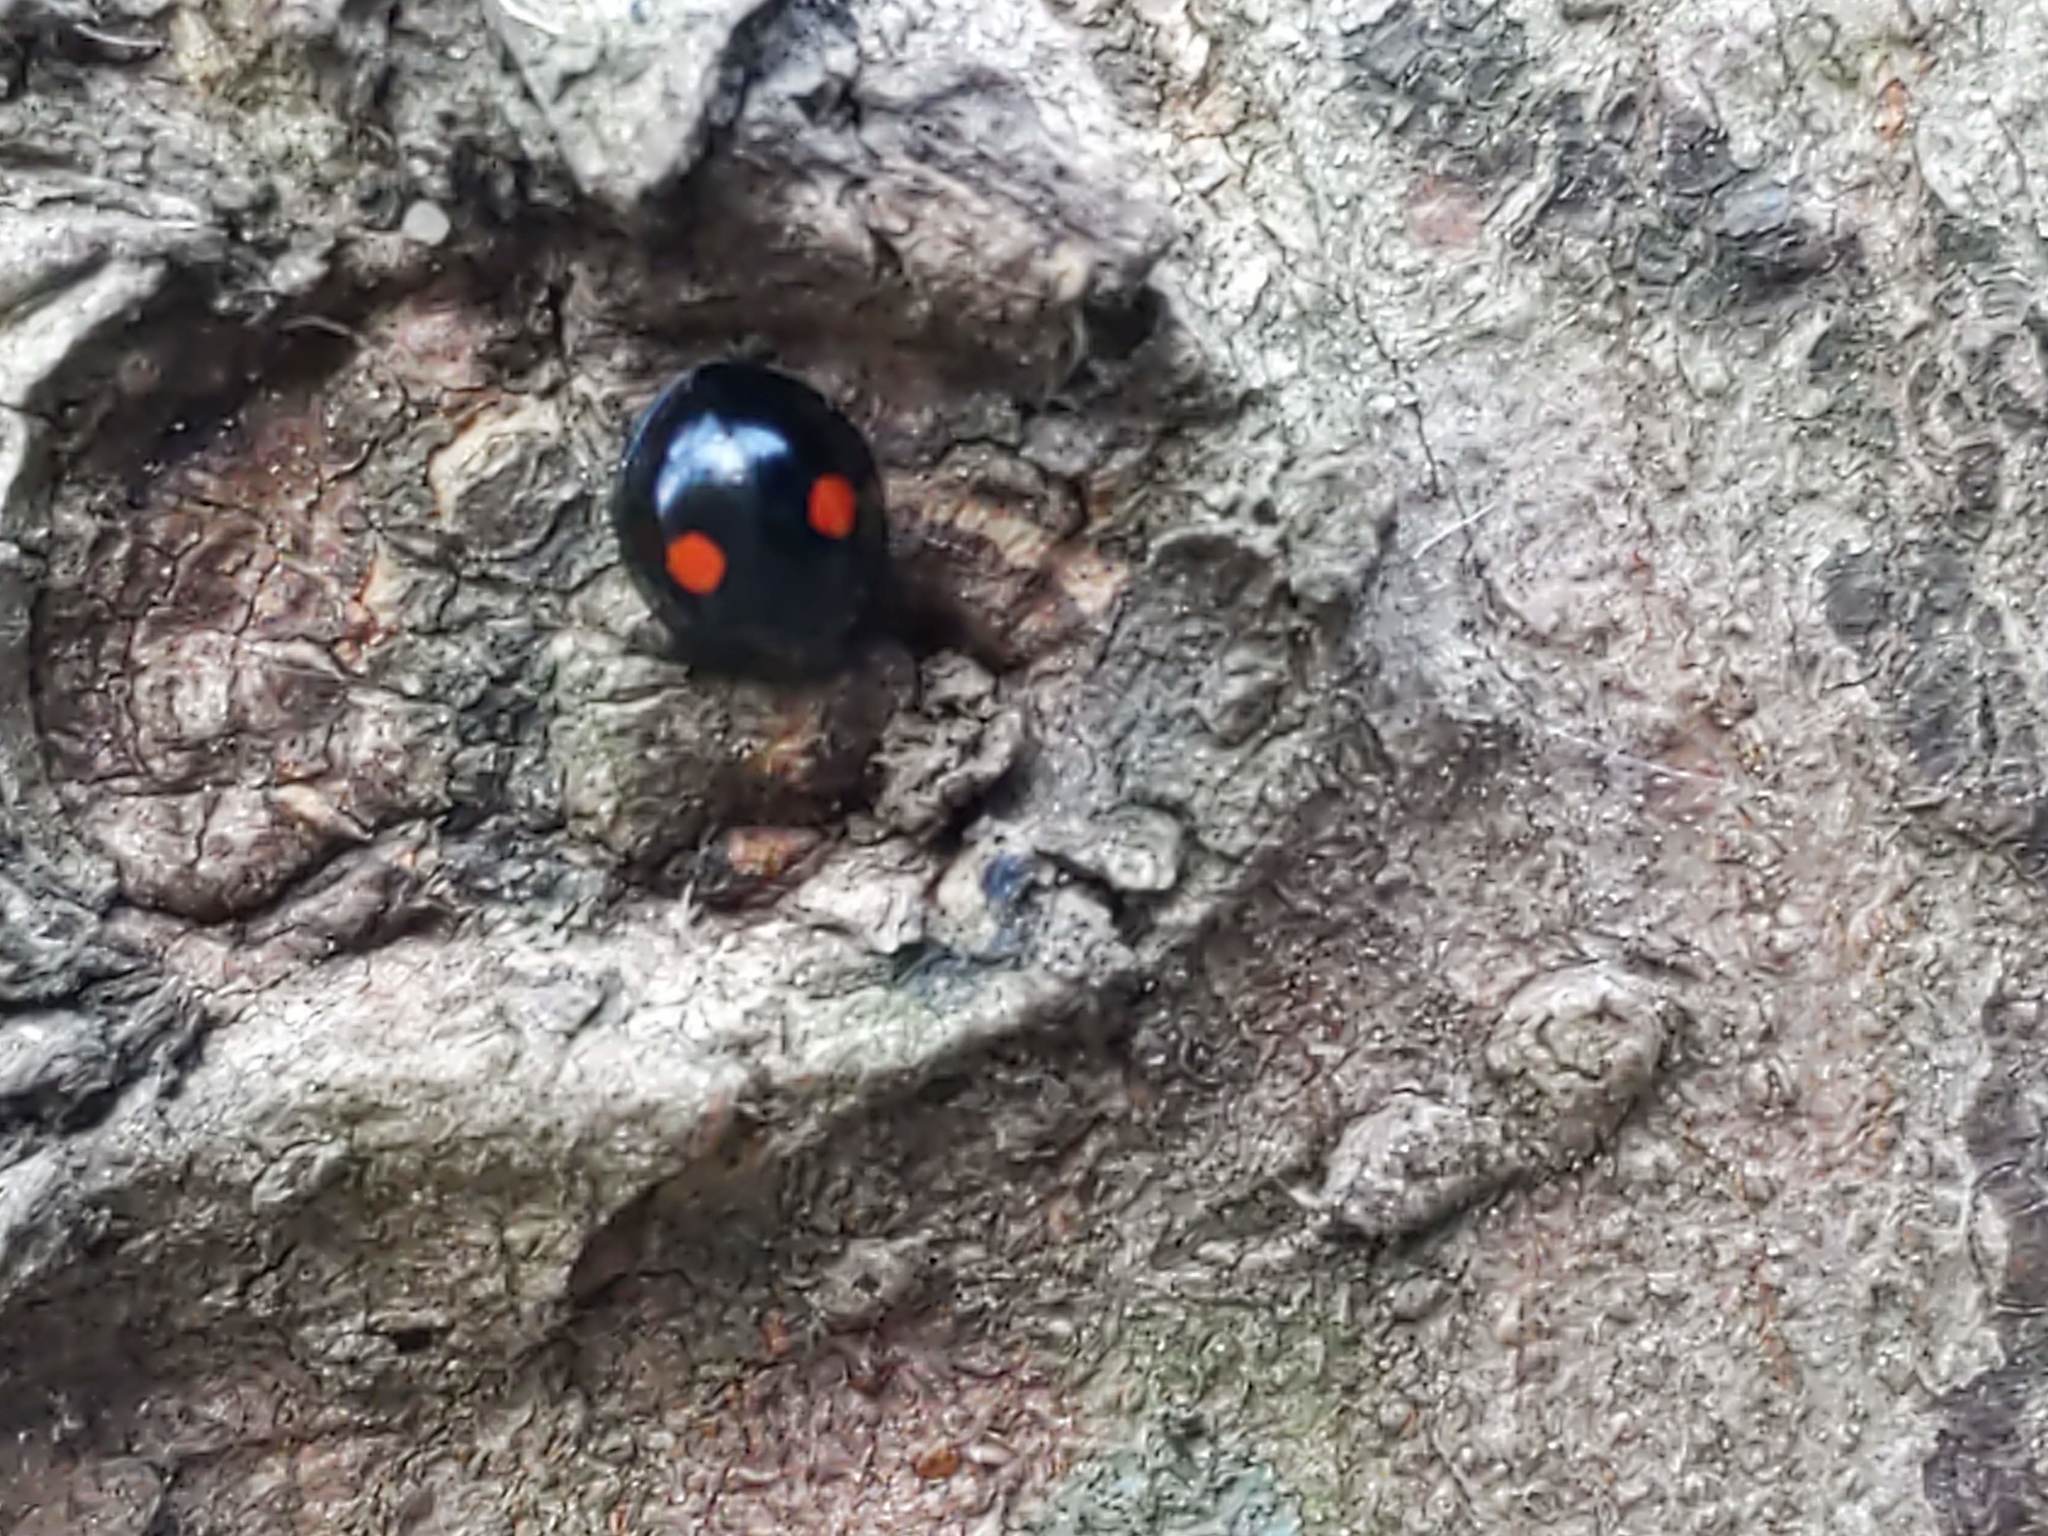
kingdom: Animalia
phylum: Arthropoda
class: Insecta
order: Coleoptera
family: Coccinellidae
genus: Chilocorus
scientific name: Chilocorus stigma
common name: Twicestabbed lady beetle
